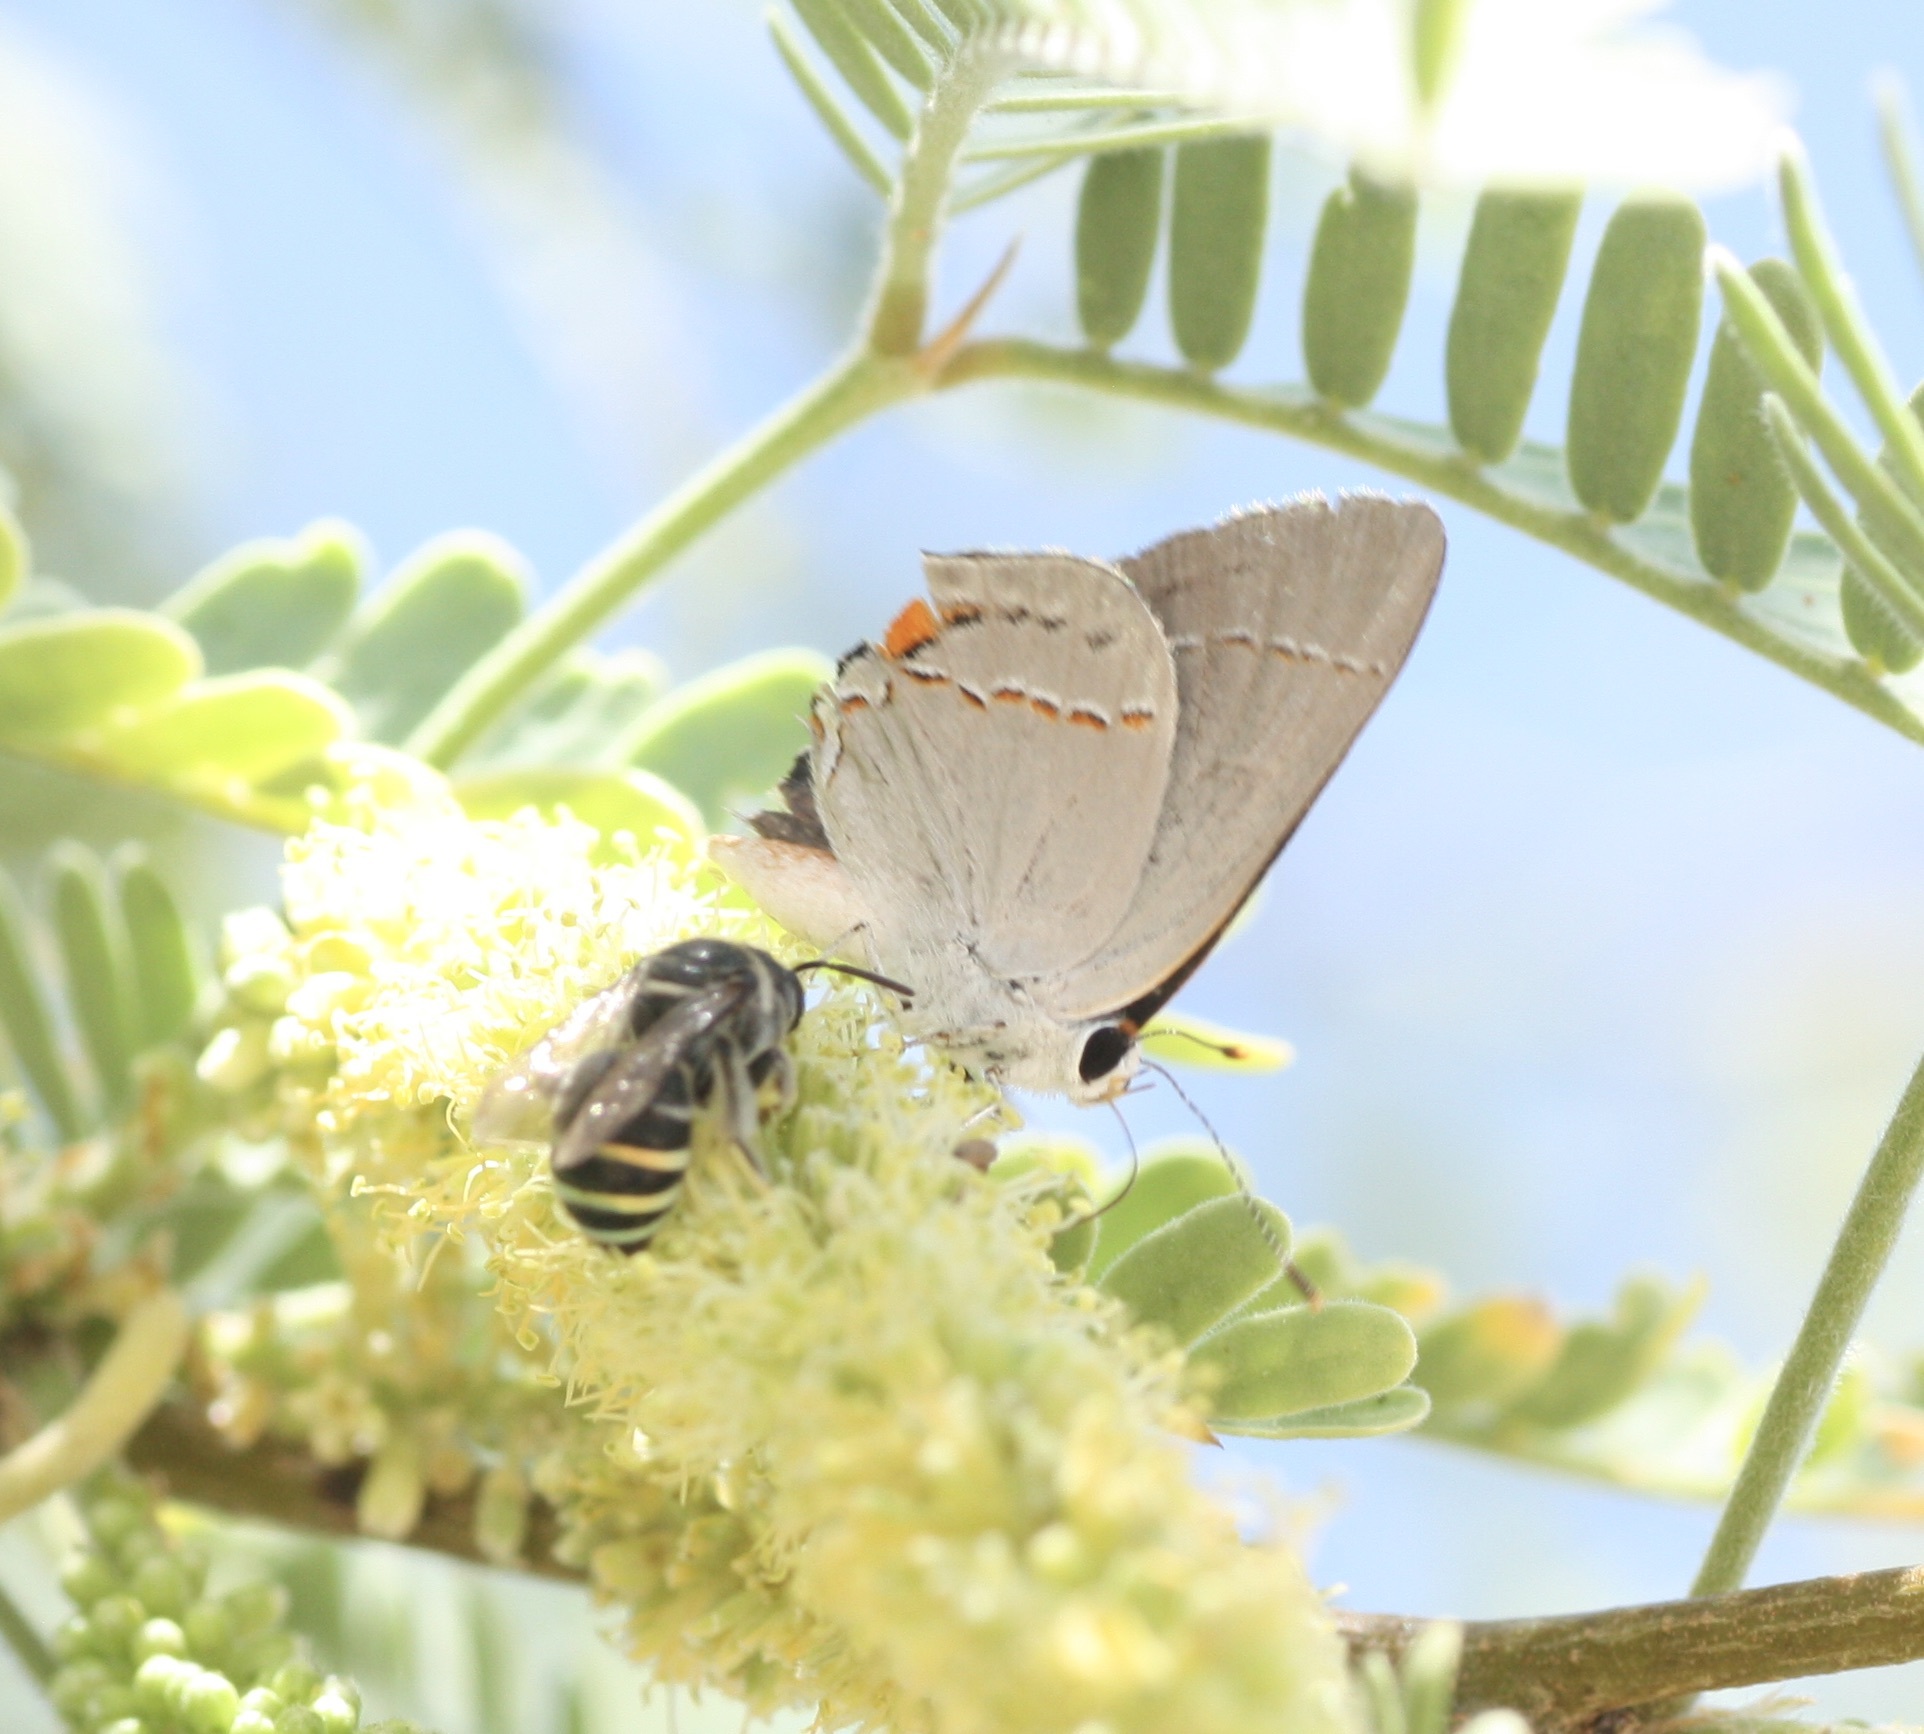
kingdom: Animalia
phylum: Arthropoda
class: Insecta
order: Lepidoptera
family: Lycaenidae
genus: Strymon
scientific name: Strymon melinus
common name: Gray hairstreak
